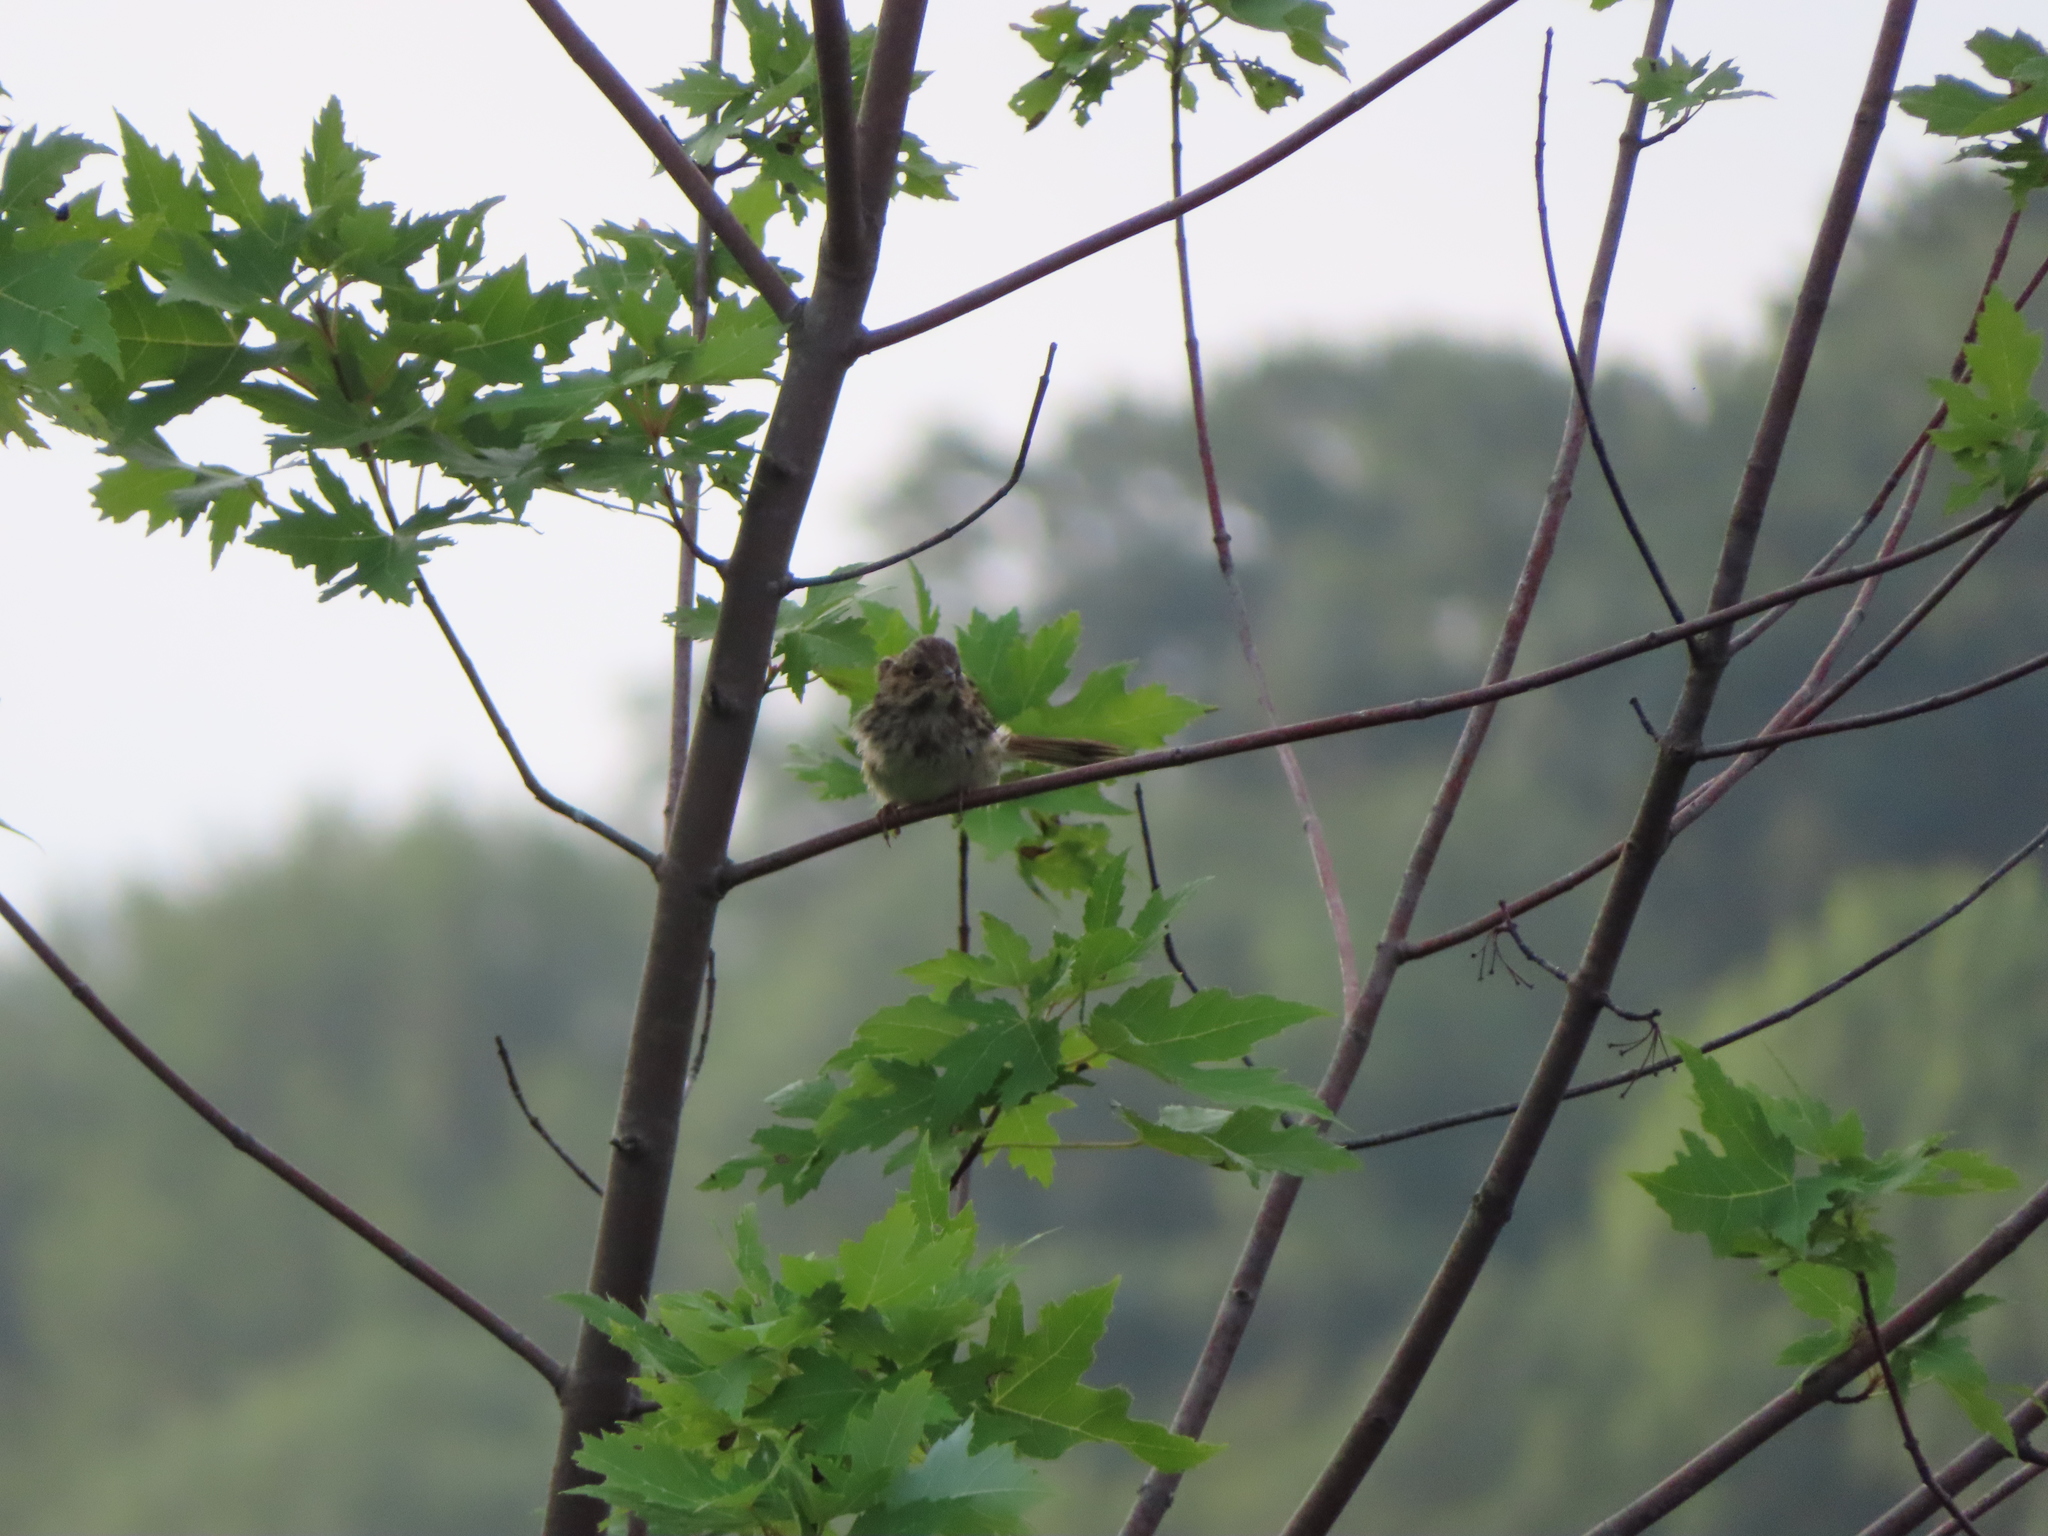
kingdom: Animalia
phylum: Chordata
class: Aves
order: Passeriformes
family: Passerellidae
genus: Melospiza
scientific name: Melospiza melodia
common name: Song sparrow
